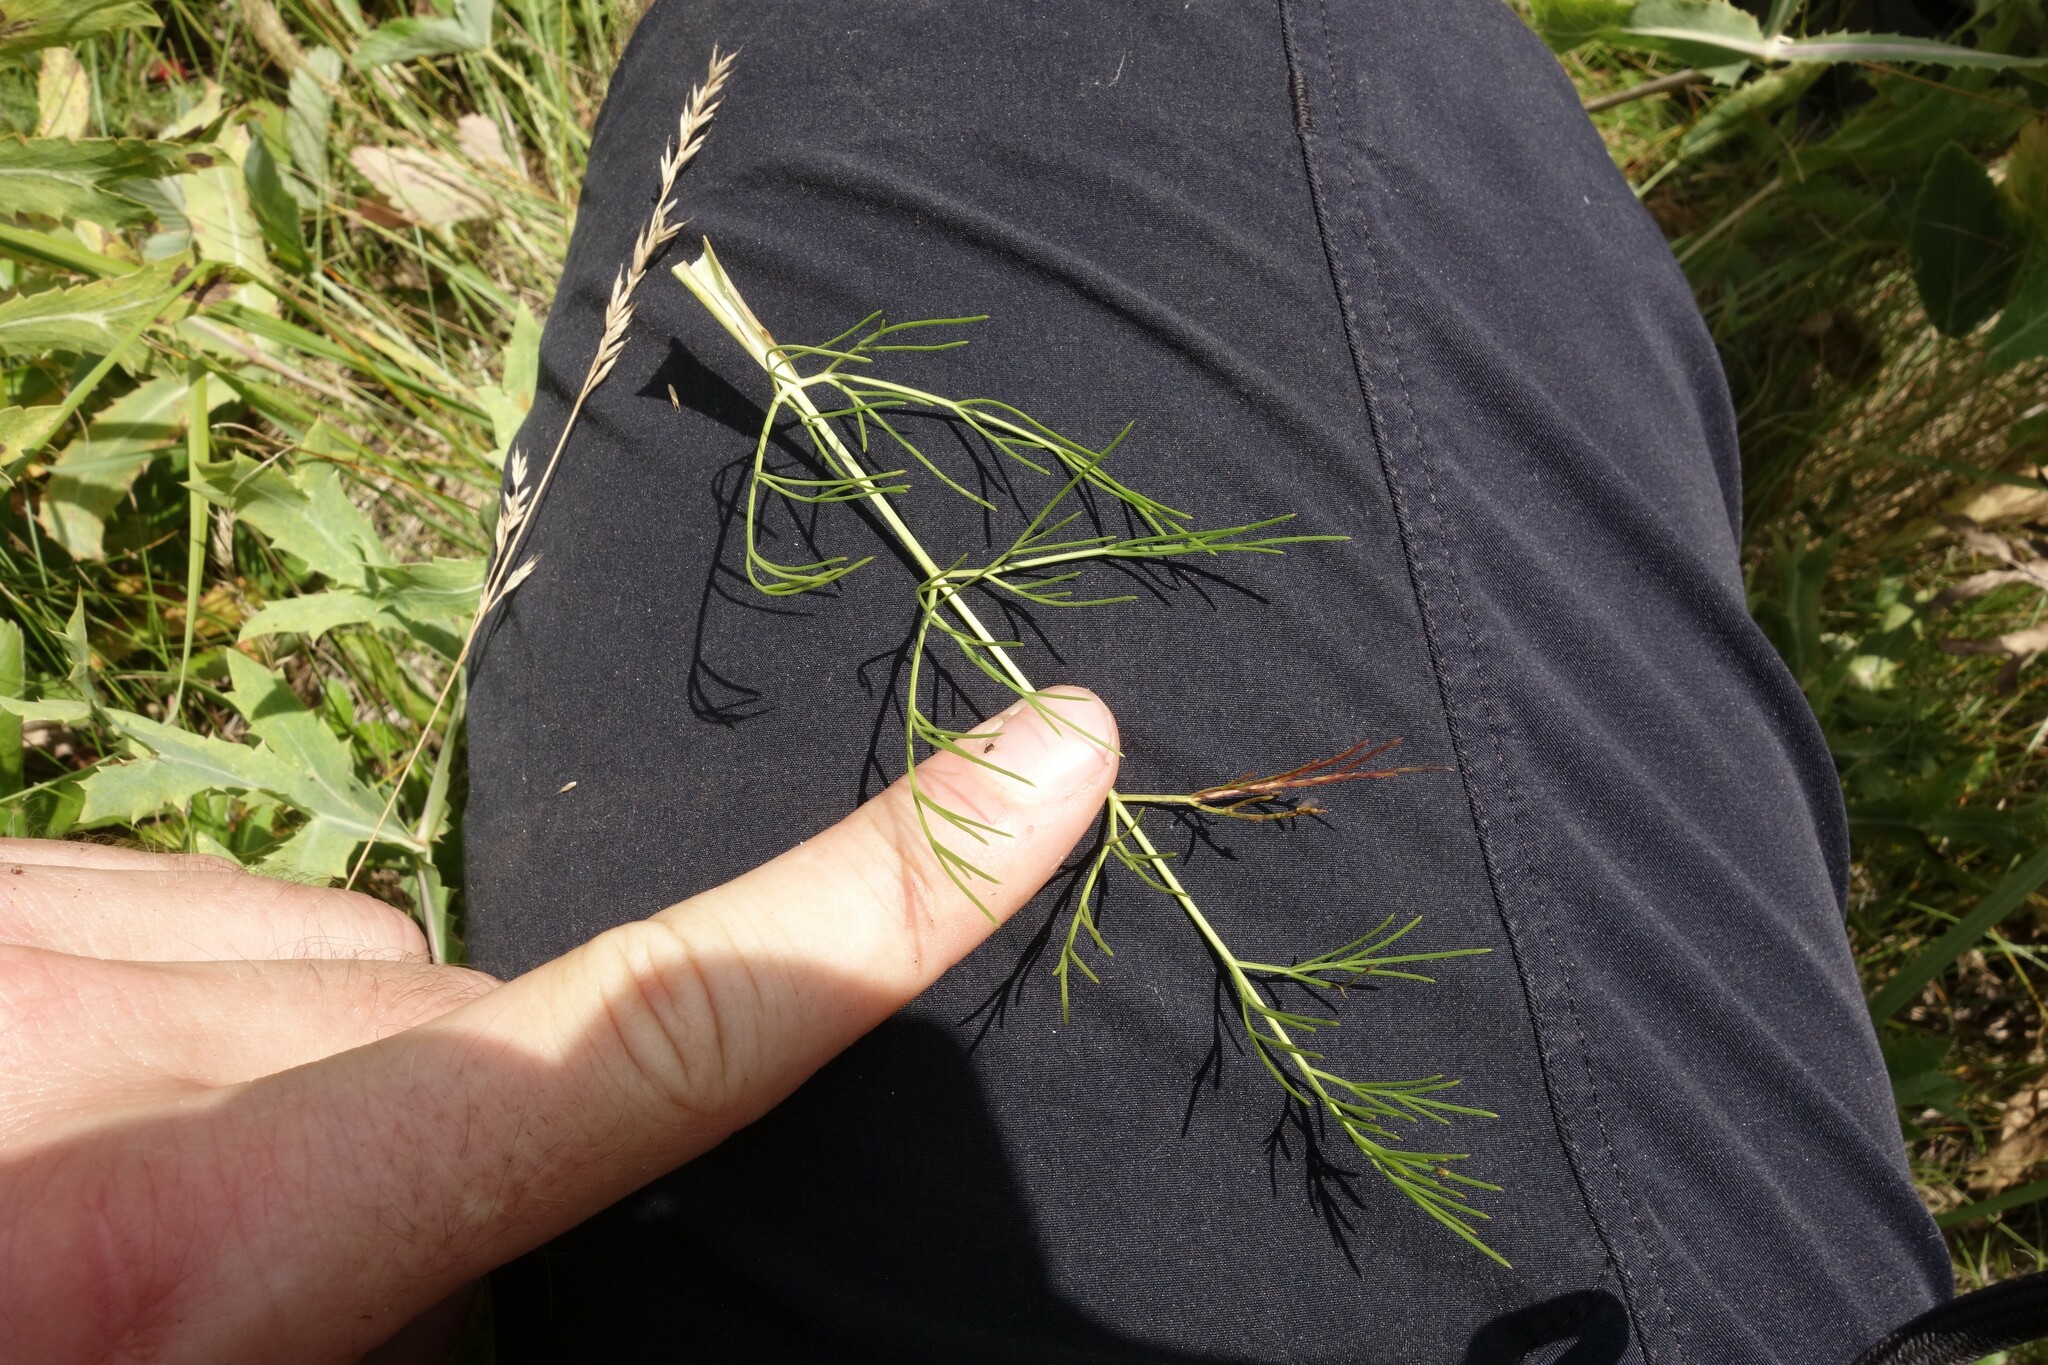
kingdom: Plantae
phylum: Tracheophyta
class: Magnoliopsida
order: Apiales
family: Apiaceae
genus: Trinia
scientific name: Trinia kitaibelii
